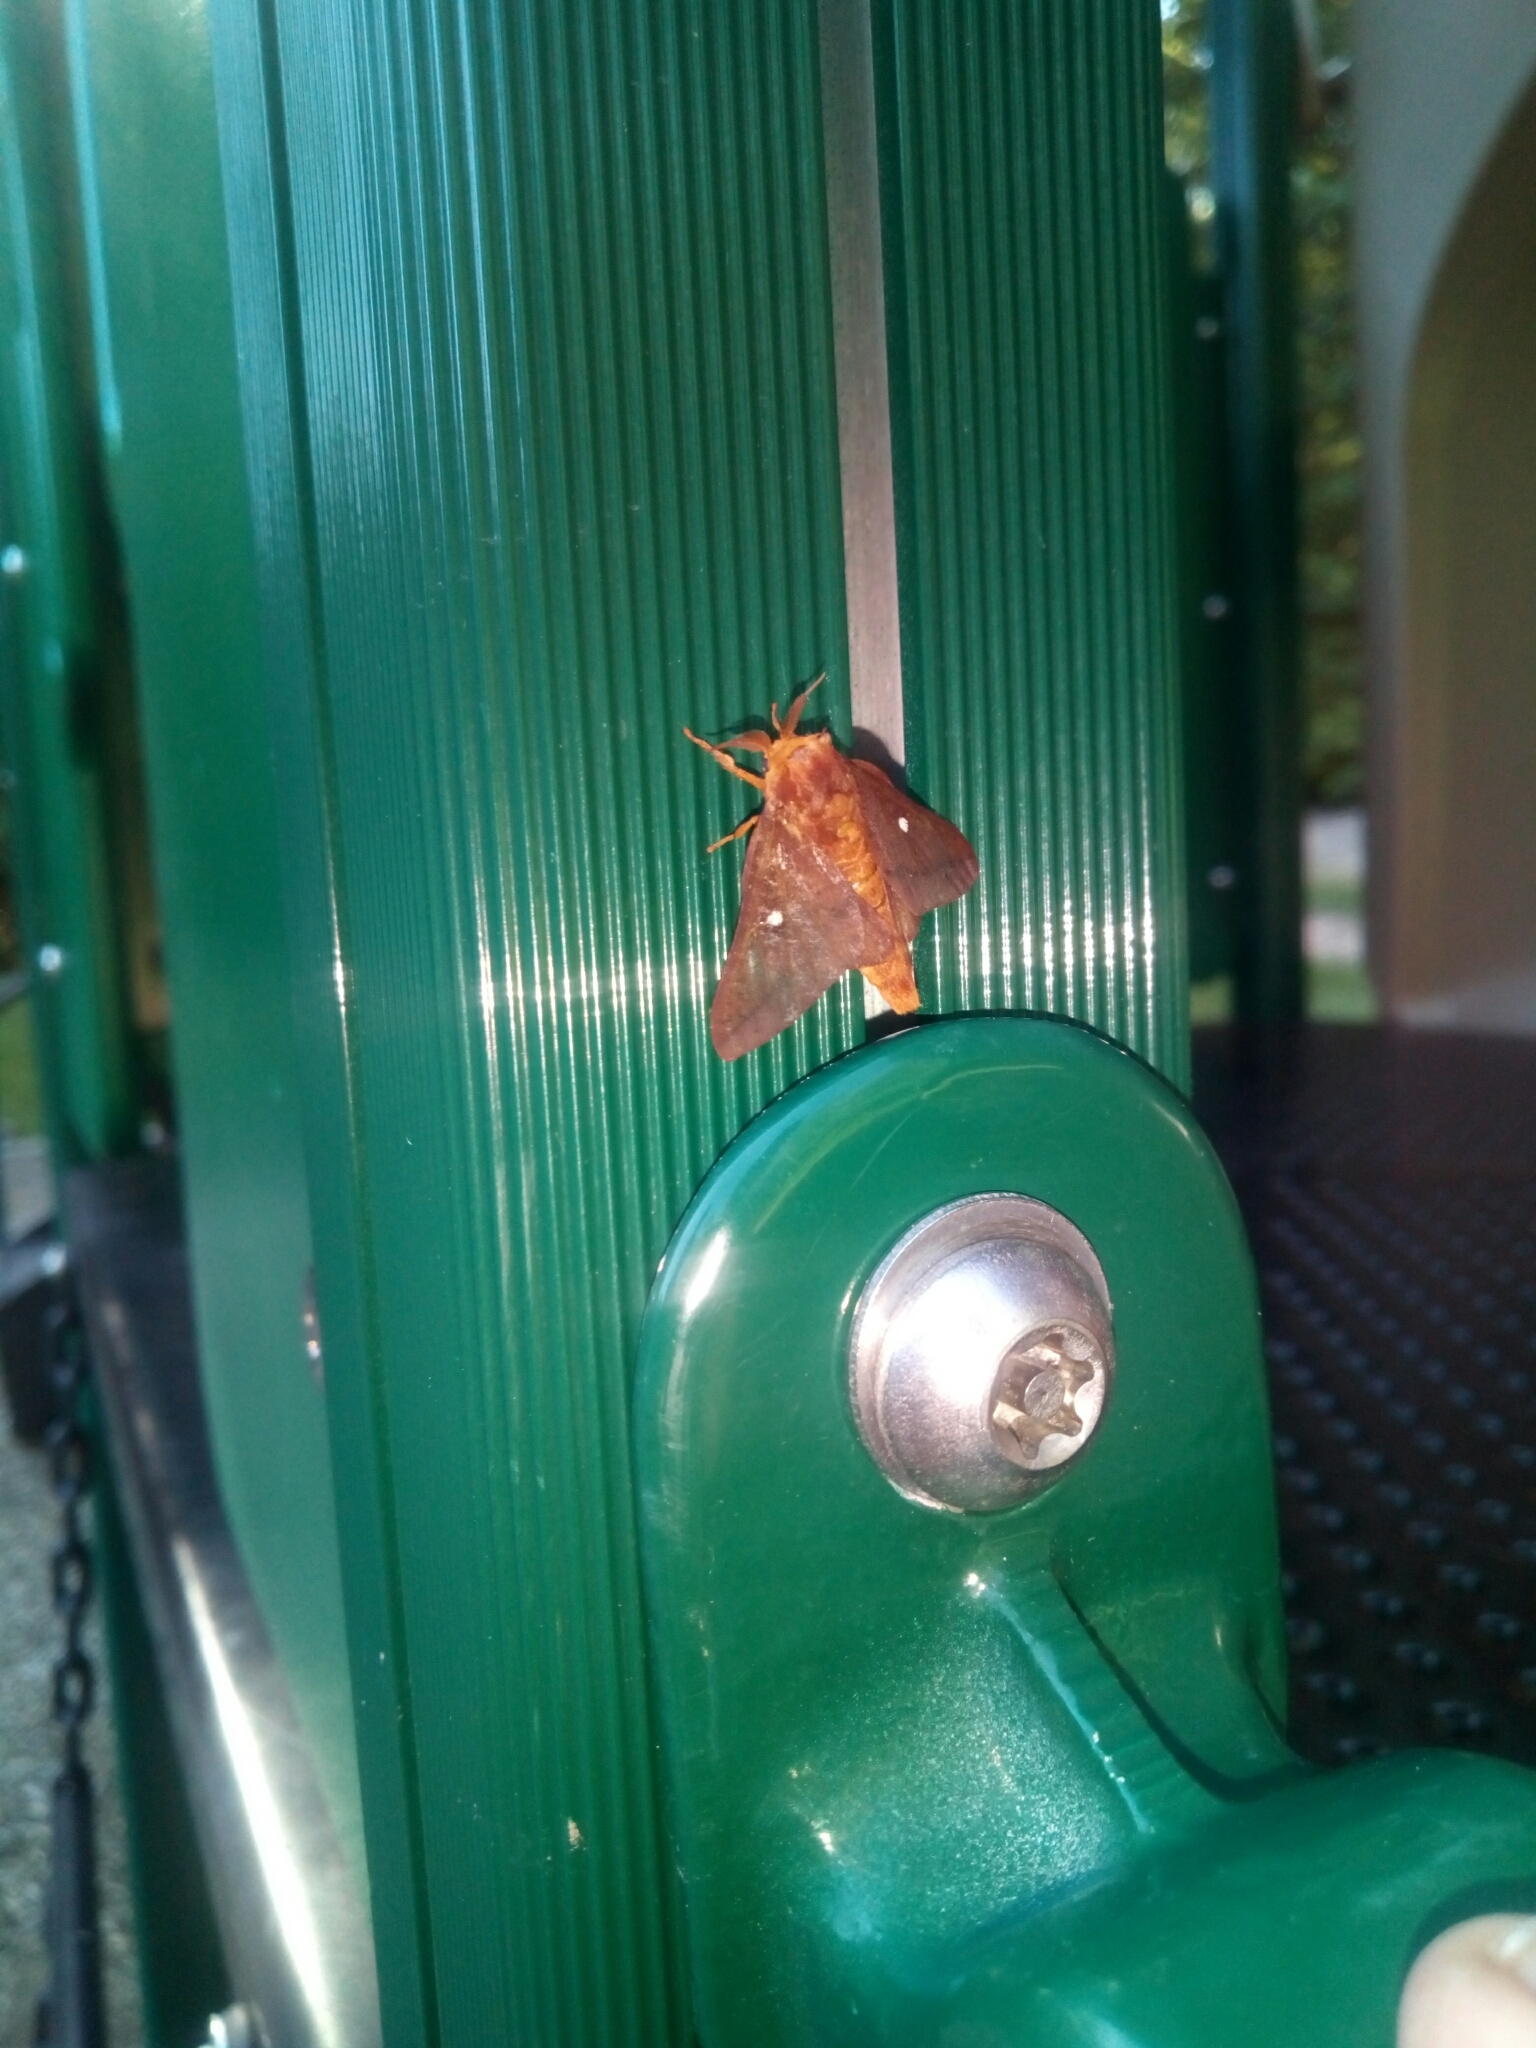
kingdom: Animalia
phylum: Arthropoda
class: Insecta
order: Lepidoptera
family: Saturniidae
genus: Anisota
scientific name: Anisota virginiensis
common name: Pink striped oakworm moth
